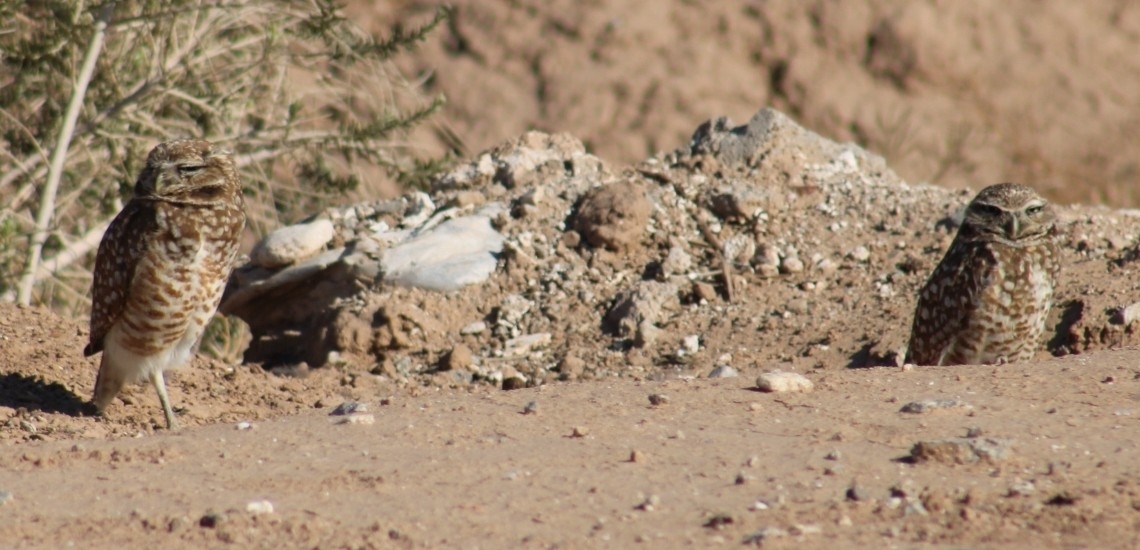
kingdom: Animalia
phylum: Chordata
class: Aves
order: Strigiformes
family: Strigidae
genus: Athene
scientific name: Athene cunicularia
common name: Burrowing owl
